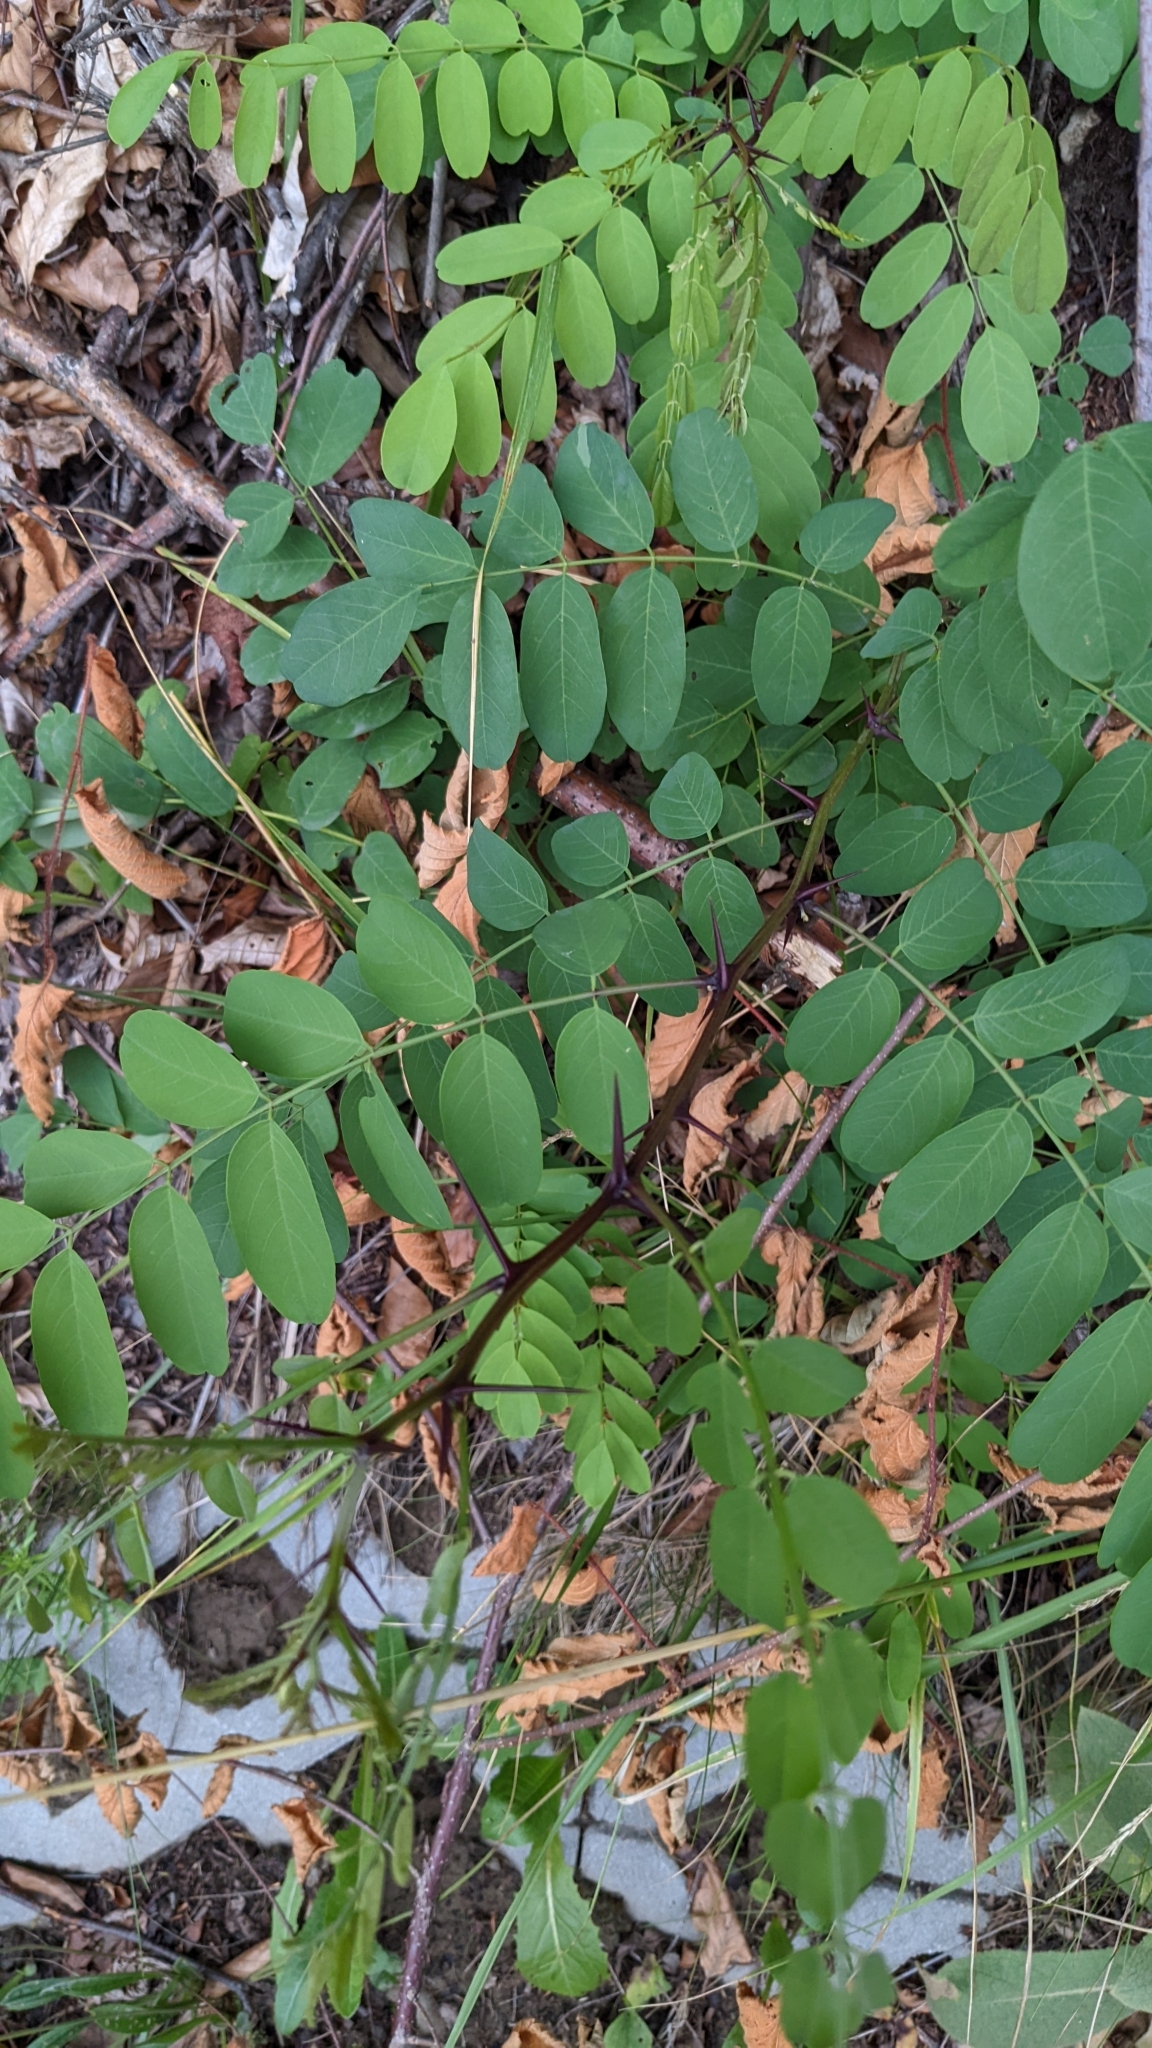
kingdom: Plantae
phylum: Tracheophyta
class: Magnoliopsida
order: Fabales
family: Fabaceae
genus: Robinia
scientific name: Robinia pseudoacacia
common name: Black locust
